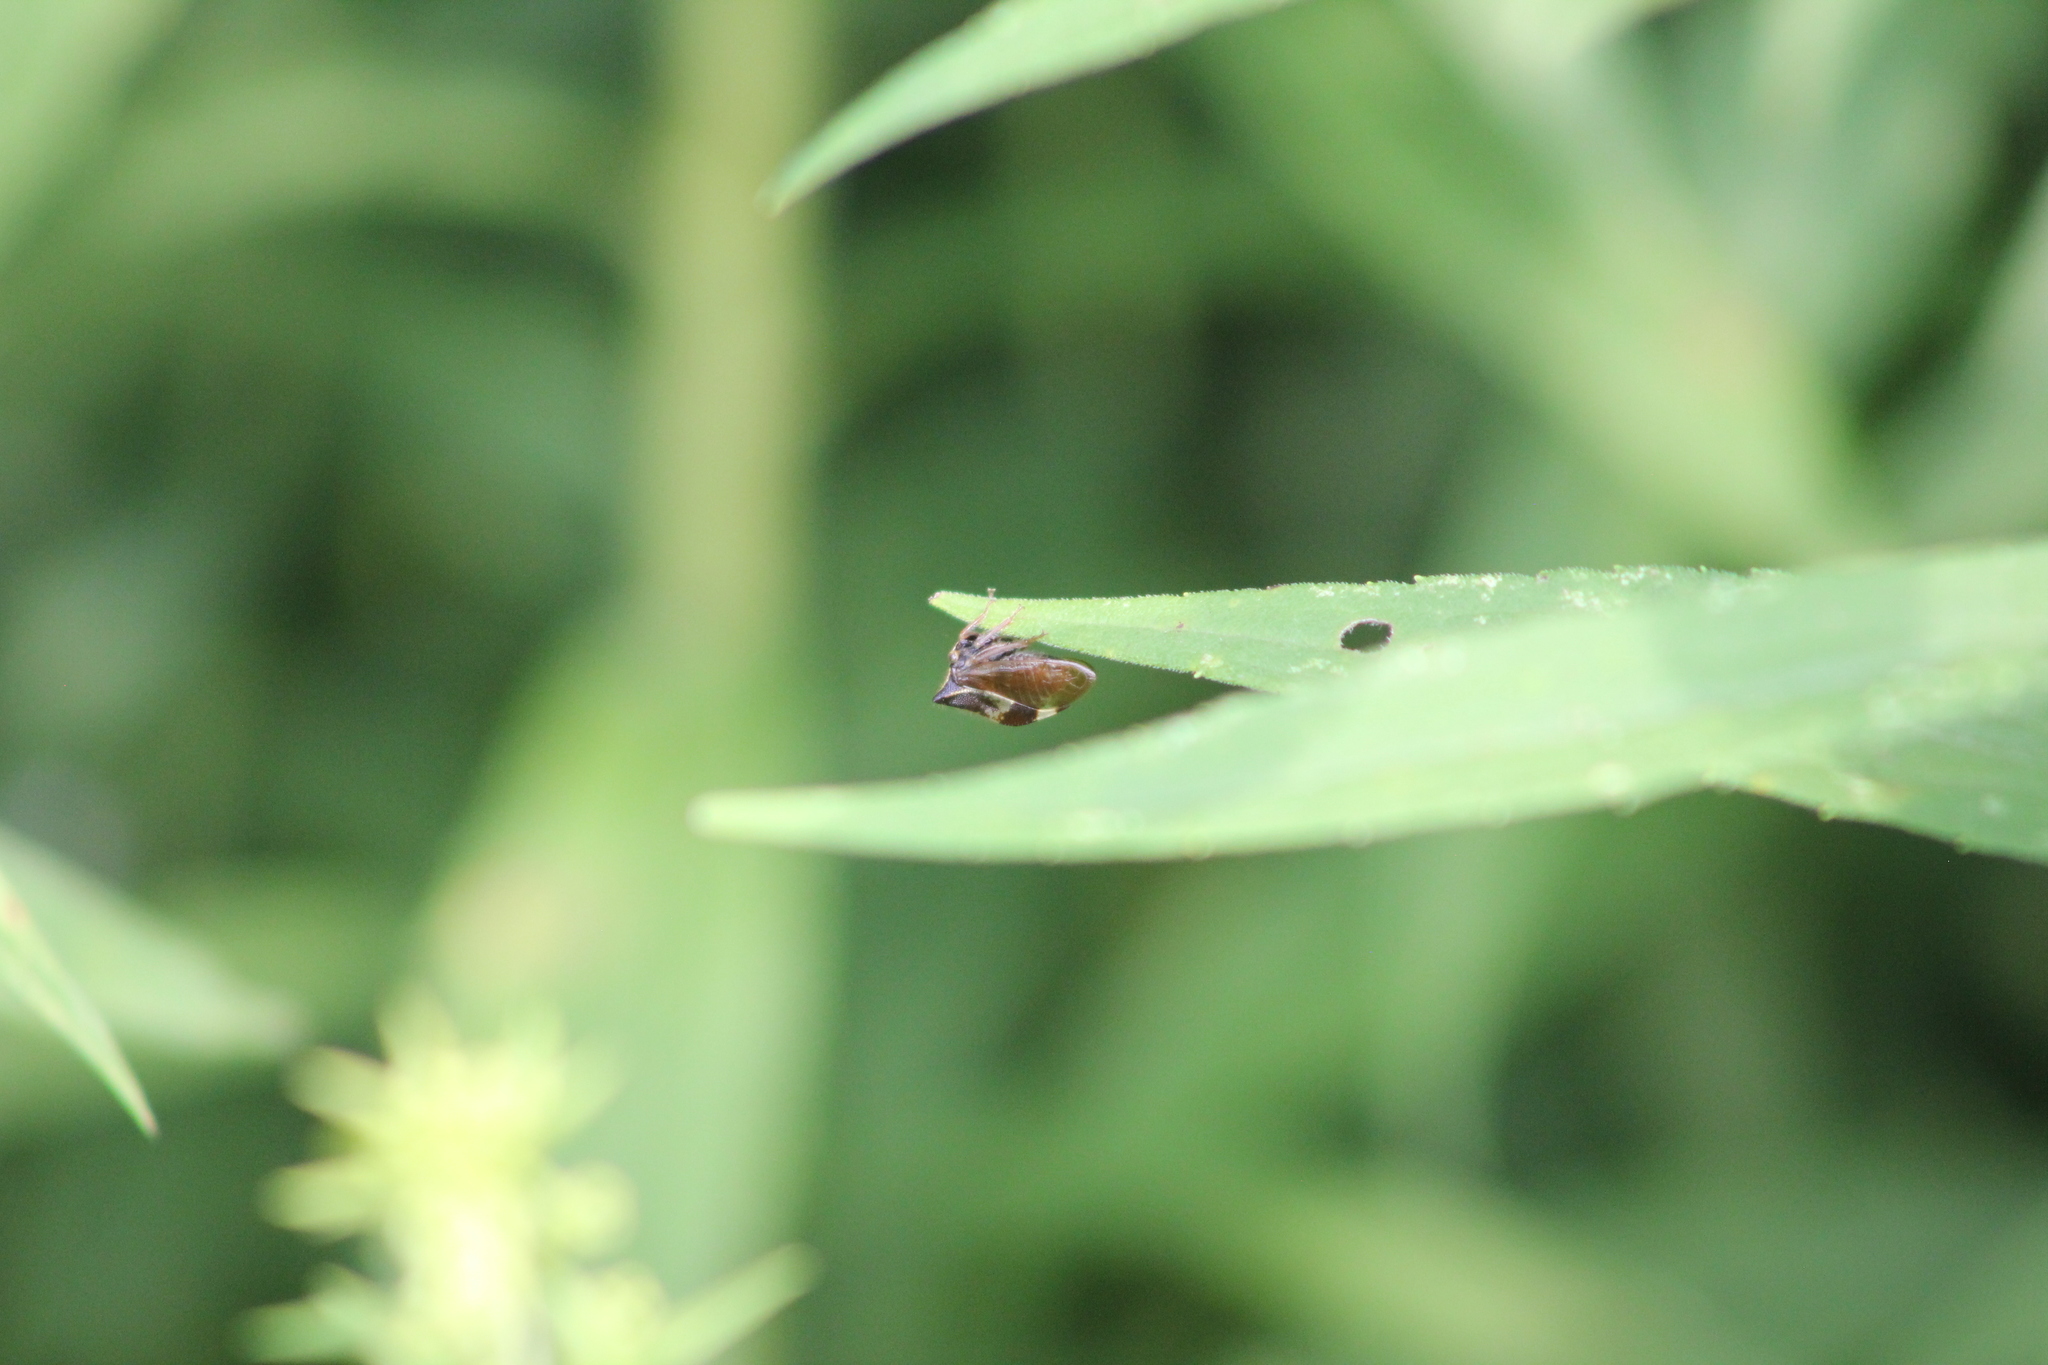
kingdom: Animalia
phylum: Arthropoda
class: Insecta
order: Hemiptera
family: Membracidae
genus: Stictocephala
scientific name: Stictocephala diceros
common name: Two-horned treehopper
